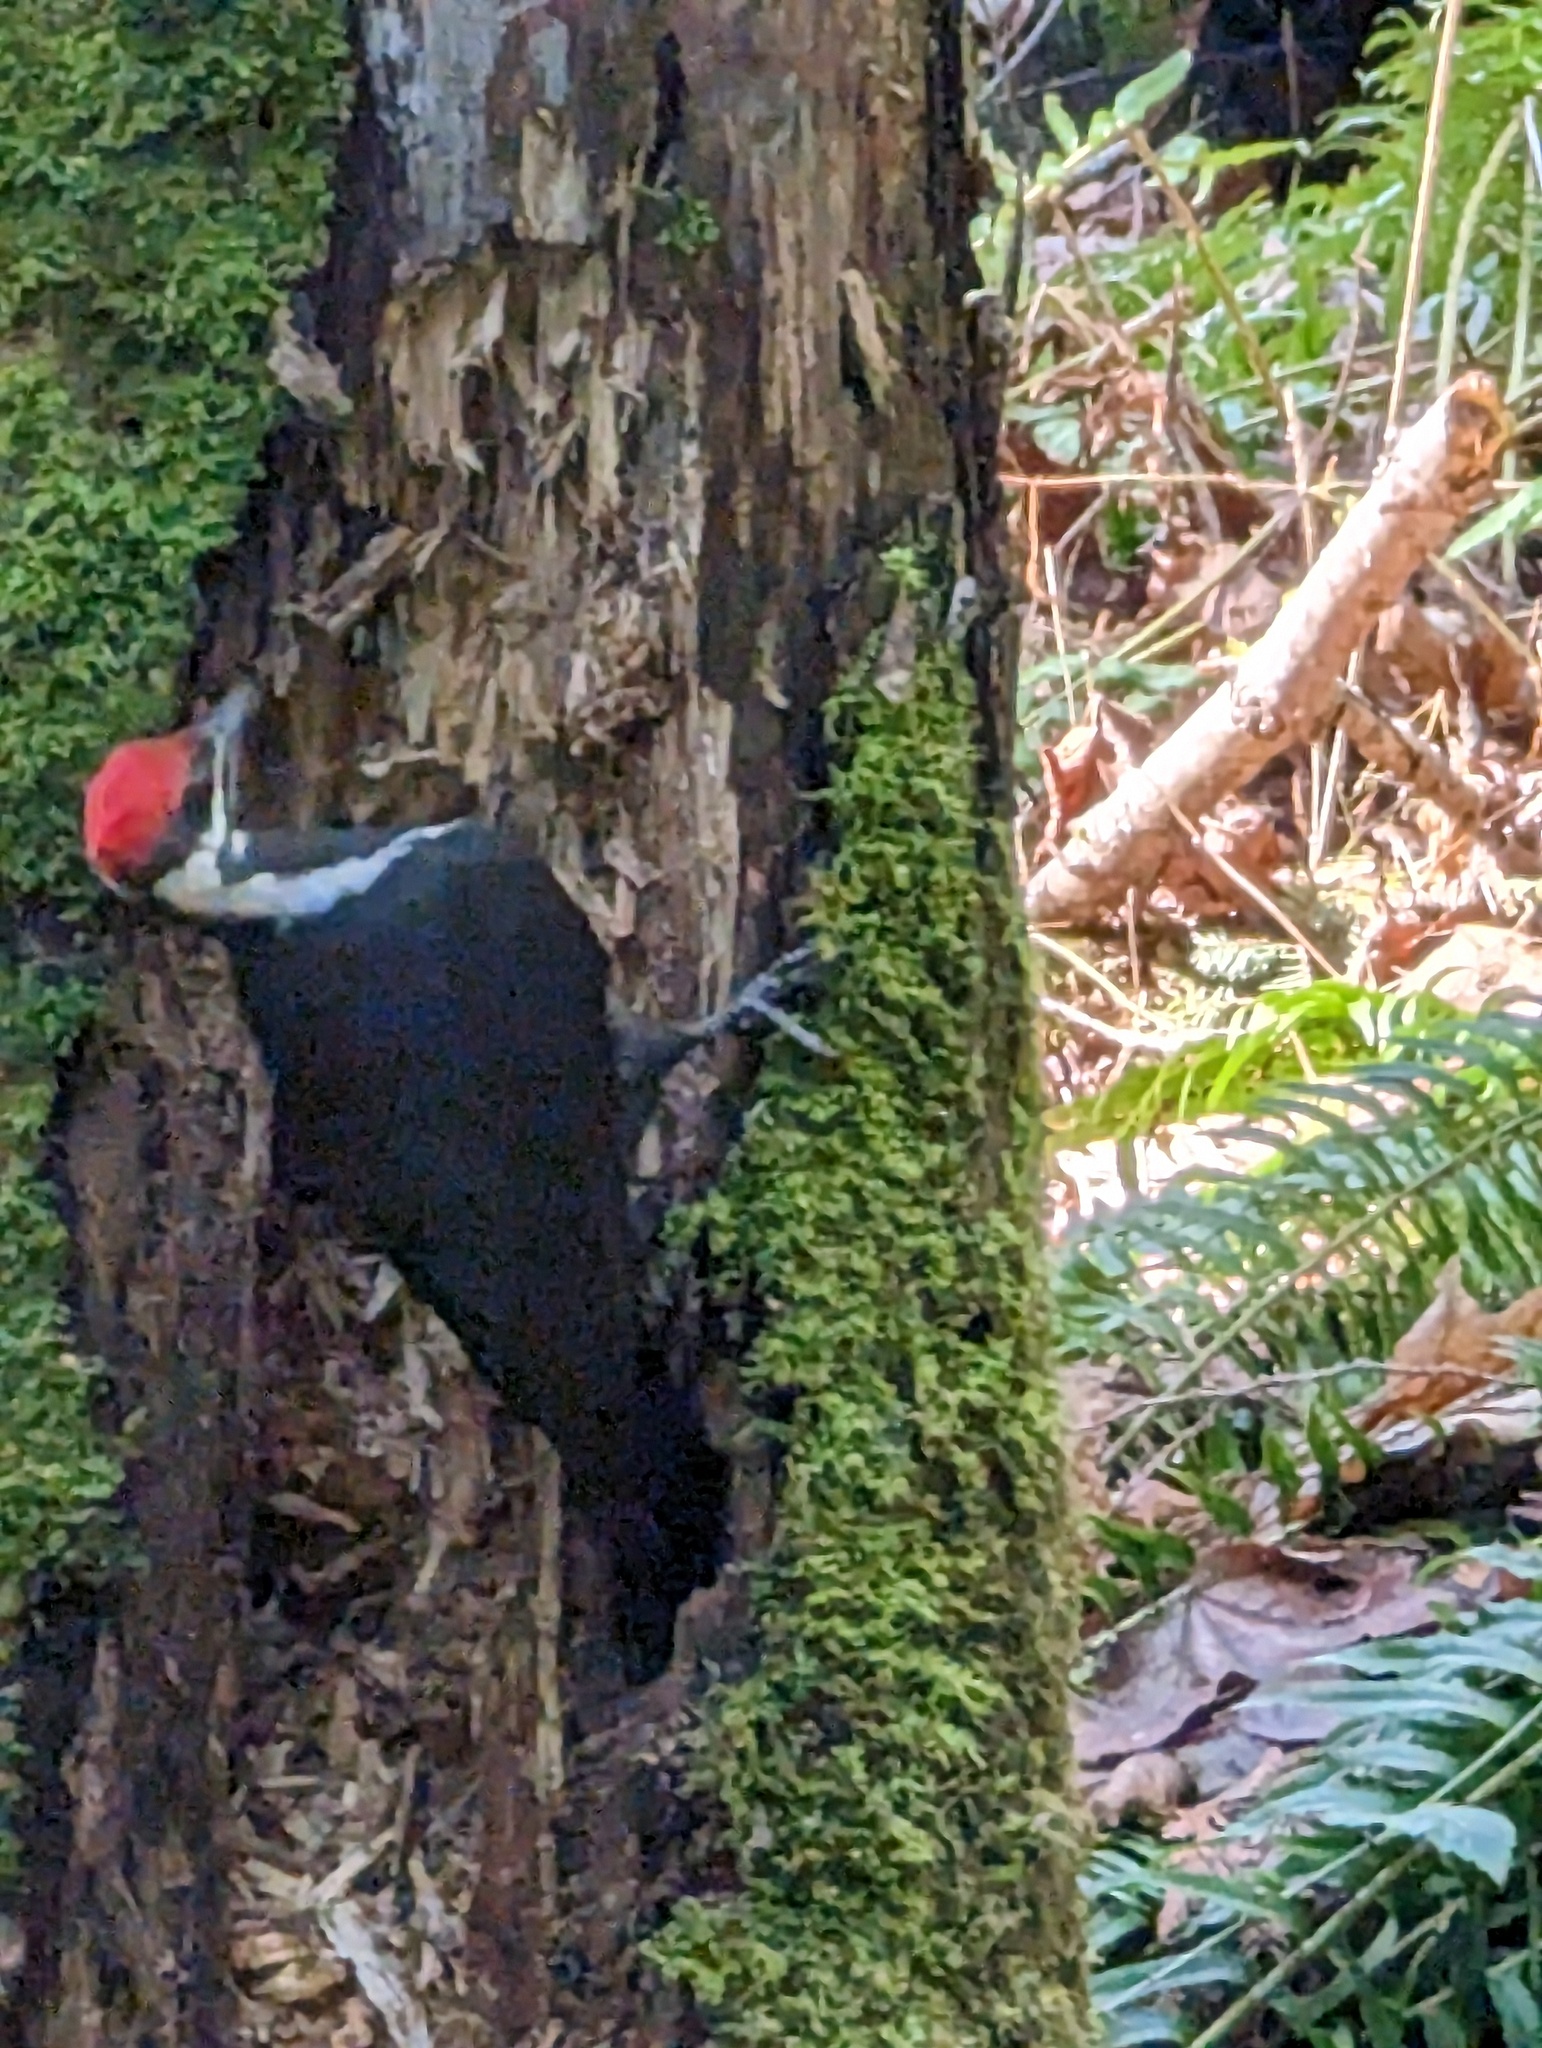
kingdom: Animalia
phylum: Chordata
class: Aves
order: Piciformes
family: Picidae
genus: Dryocopus
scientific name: Dryocopus pileatus
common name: Pileated woodpecker
